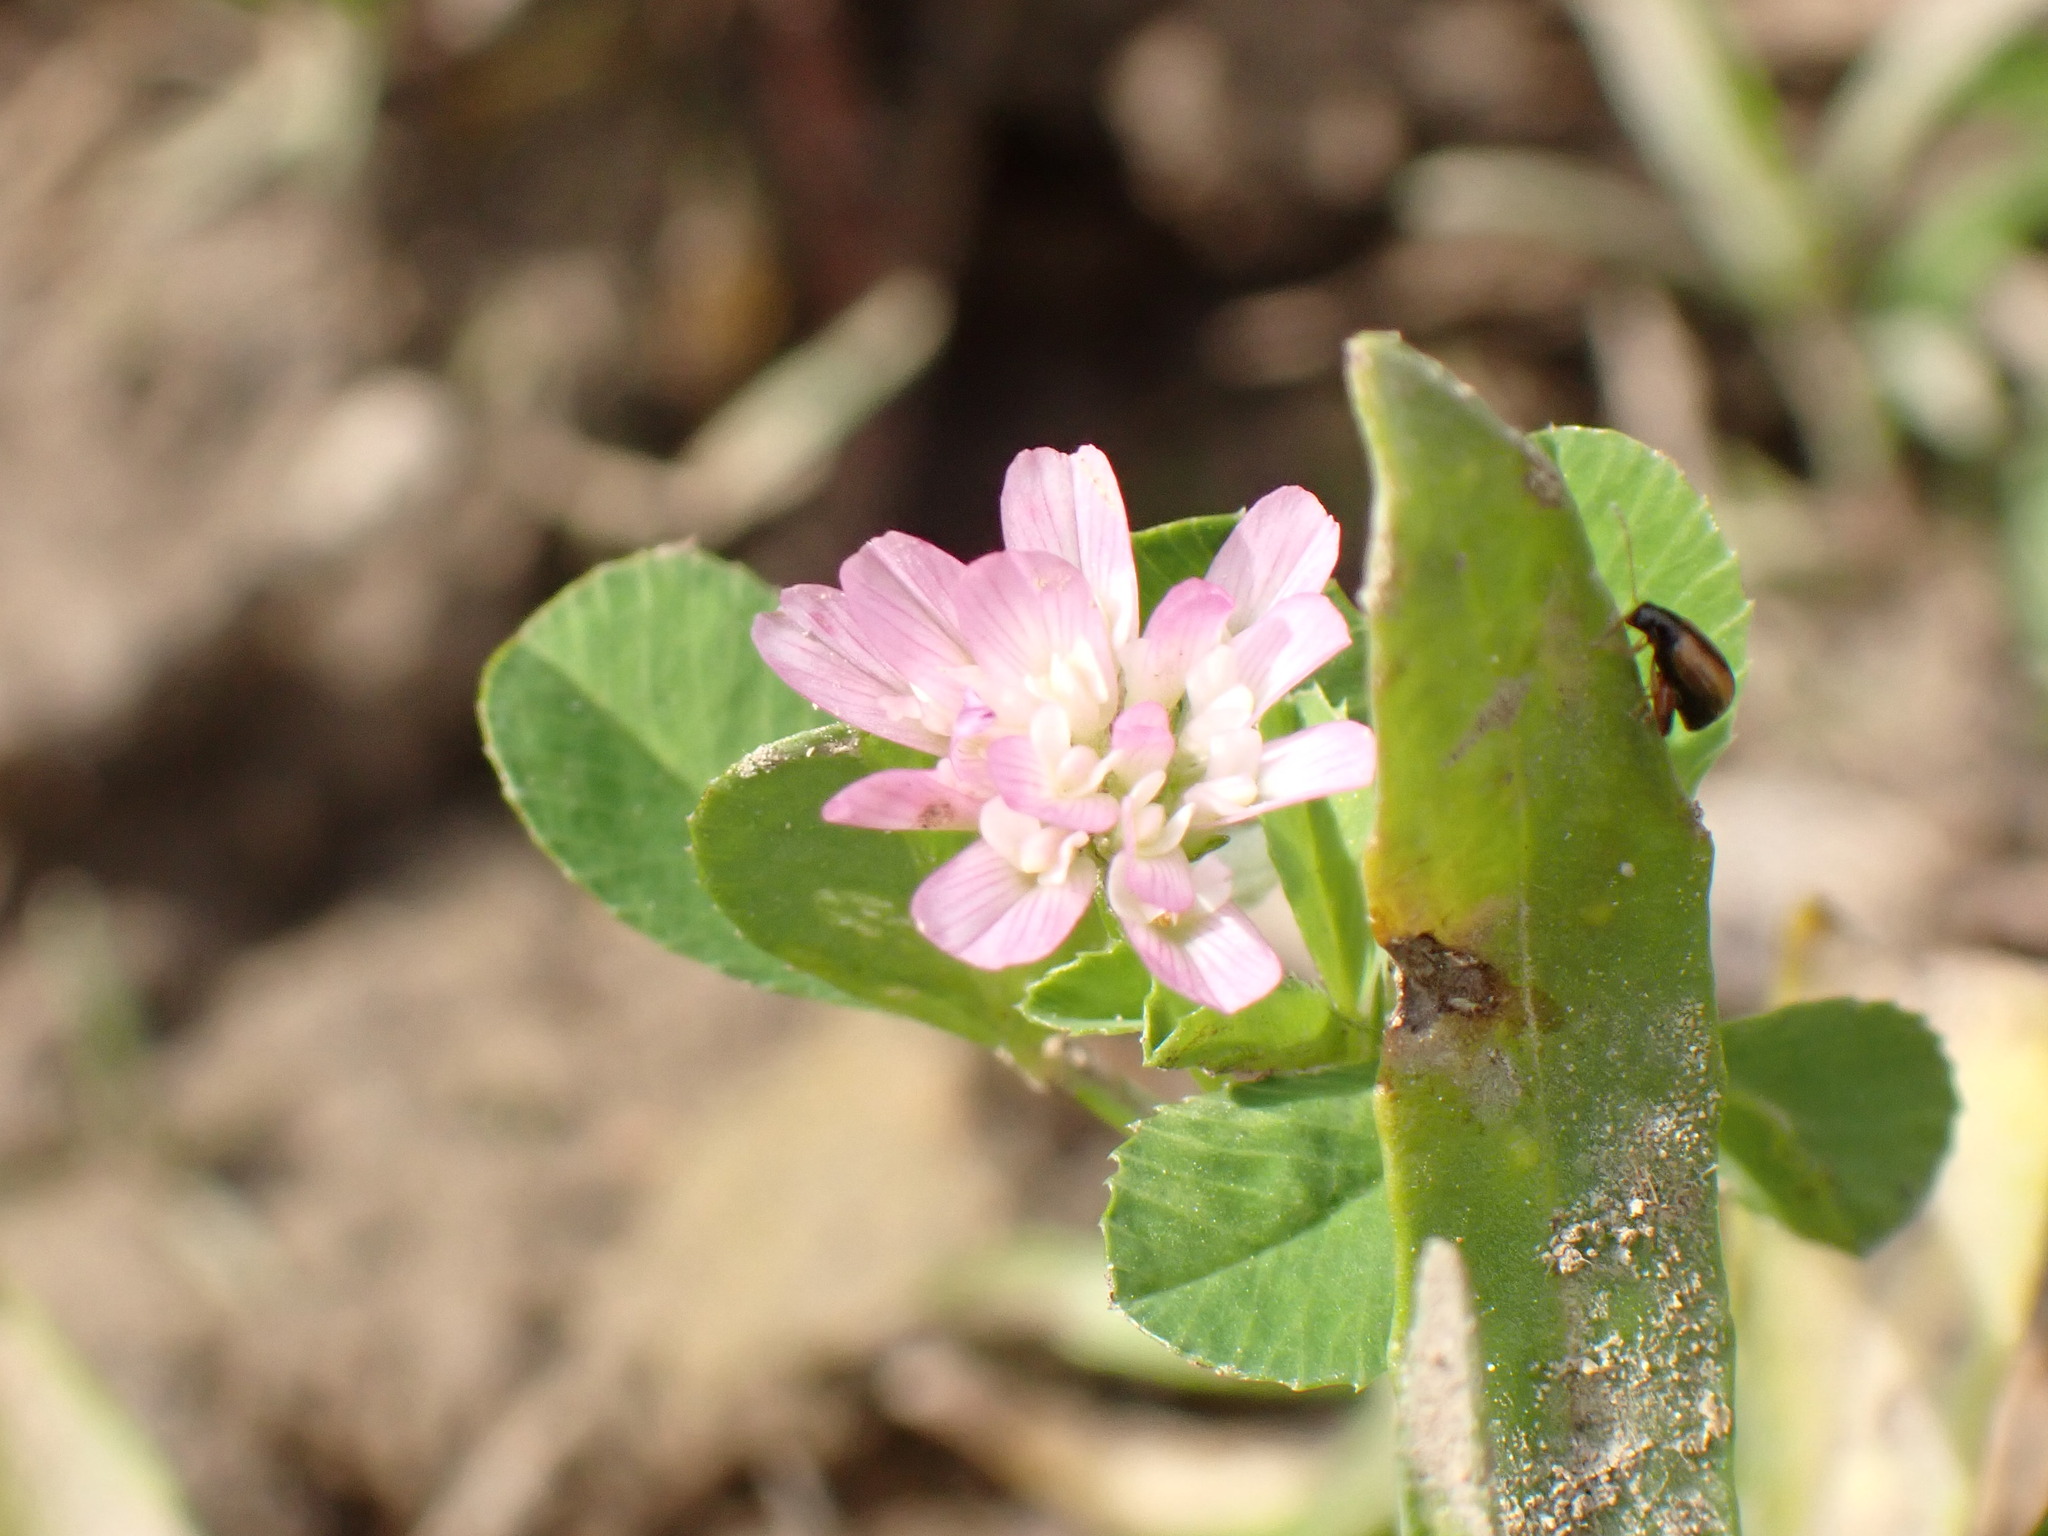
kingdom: Plantae
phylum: Tracheophyta
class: Magnoliopsida
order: Fabales
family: Fabaceae
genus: Trifolium
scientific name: Trifolium resupinatum
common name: Reversed clover
